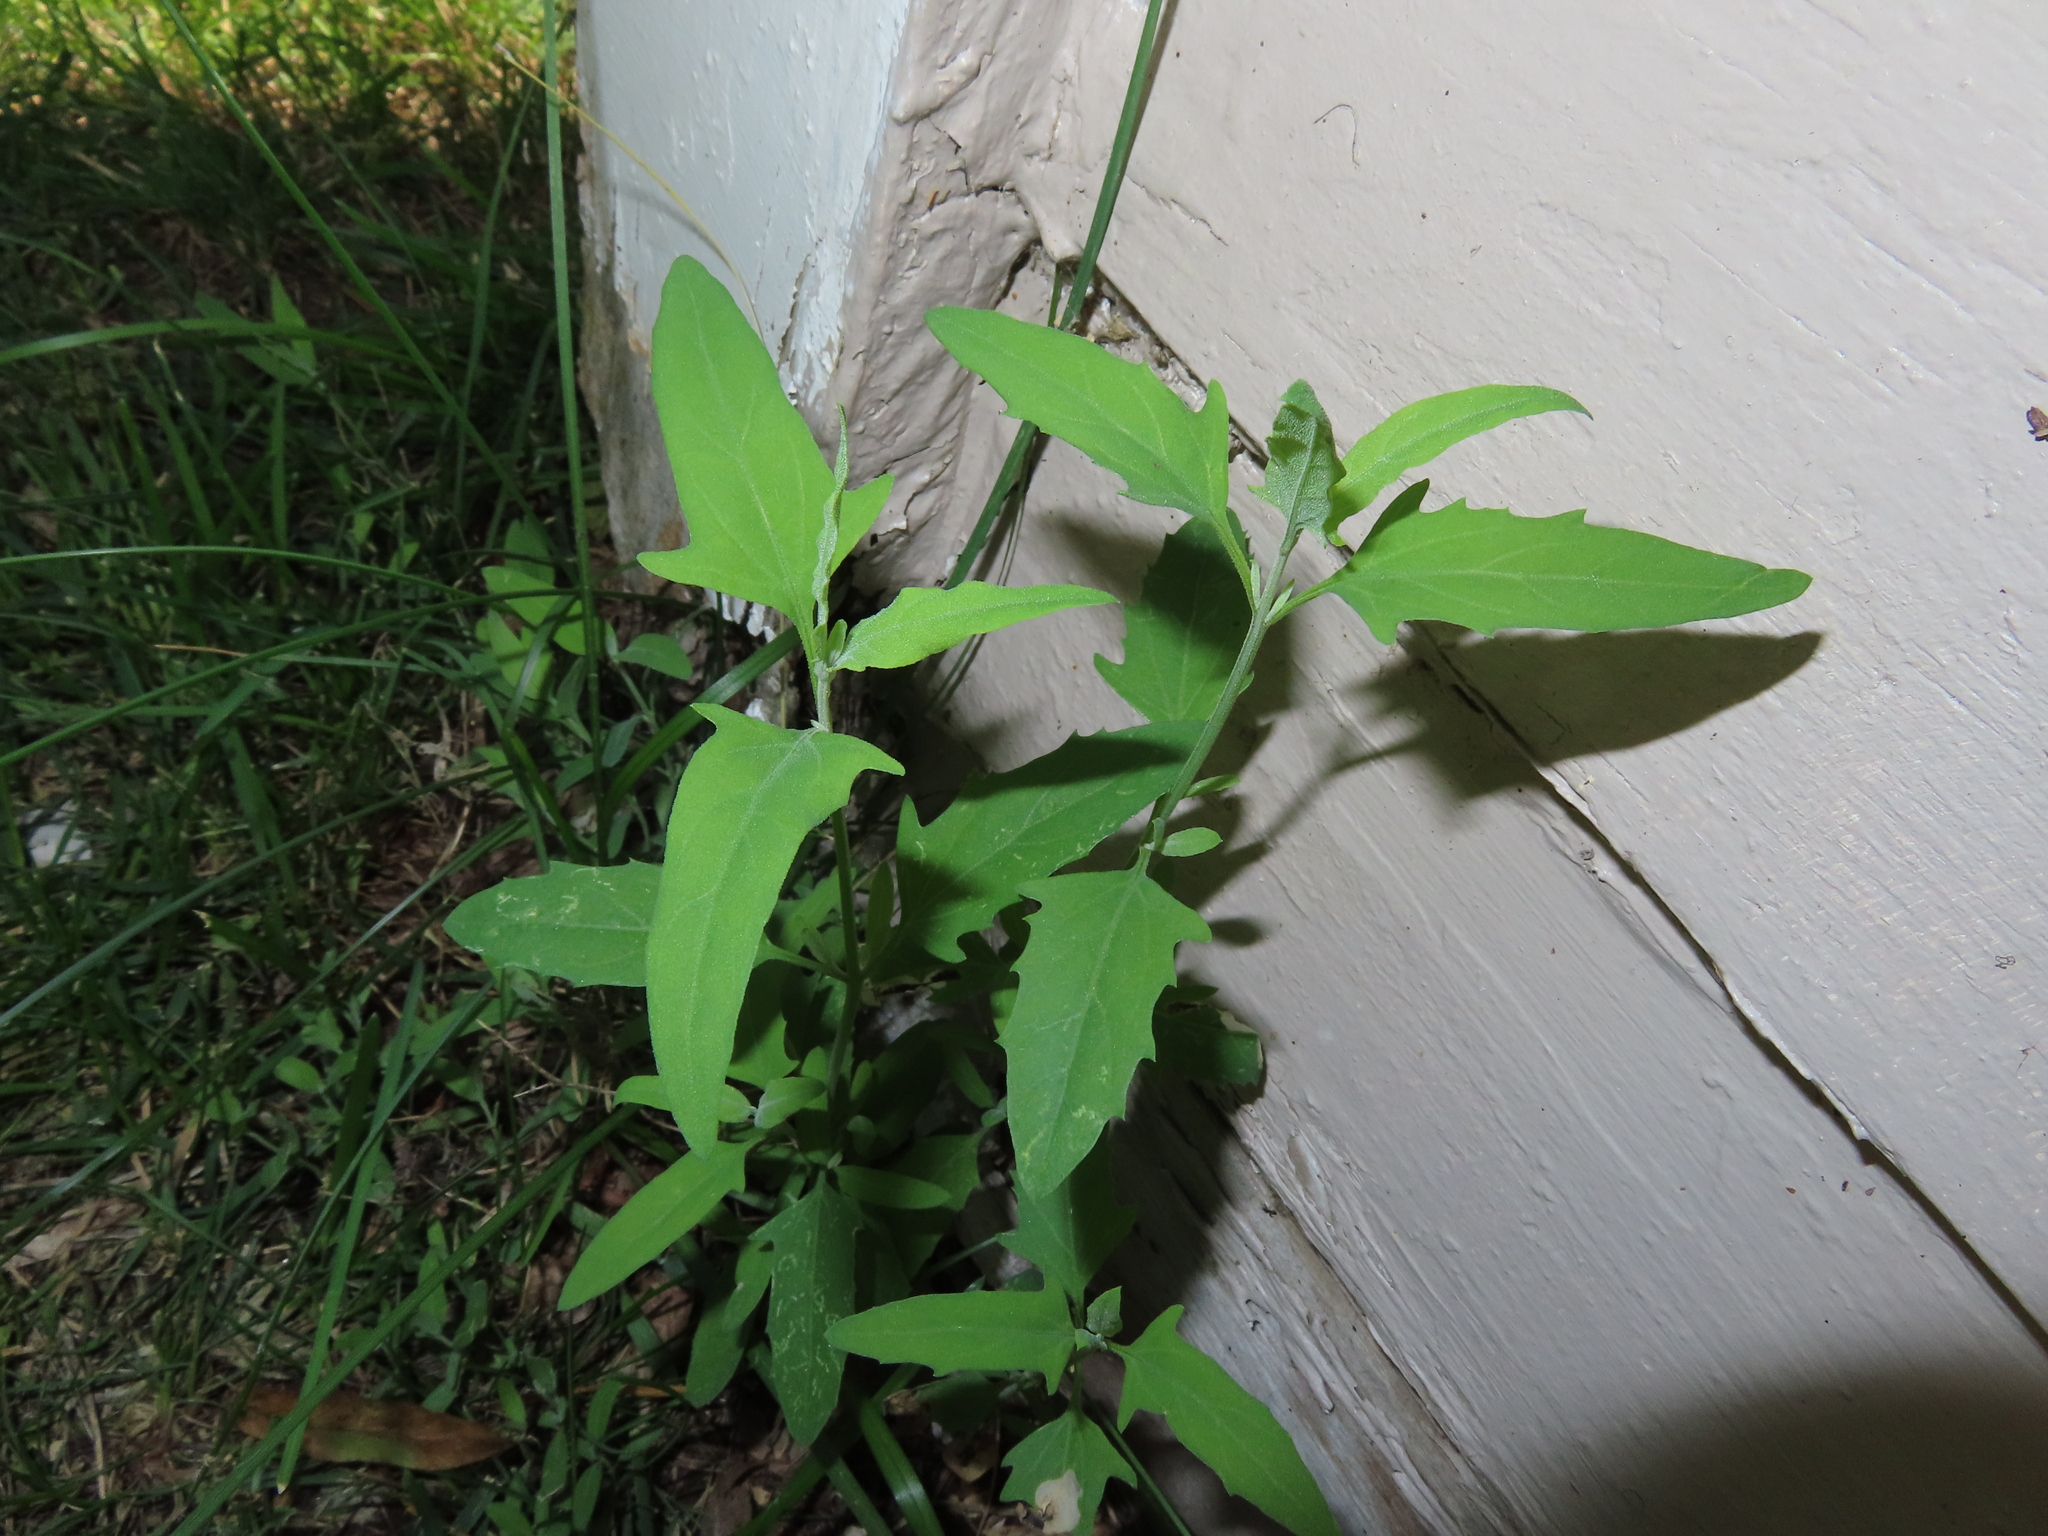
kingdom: Plantae
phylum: Tracheophyta
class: Magnoliopsida
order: Caryophyllales
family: Amaranthaceae
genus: Chenopodium
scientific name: Chenopodium album
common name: Fat-hen
